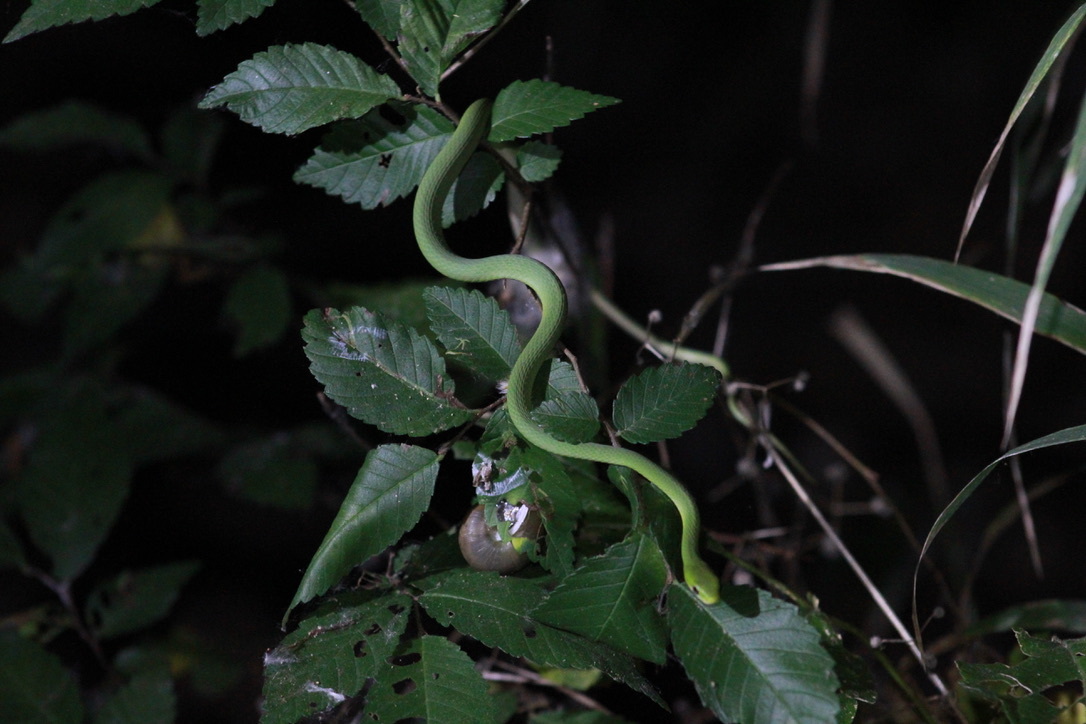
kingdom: Animalia
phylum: Chordata
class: Squamata
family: Colubridae
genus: Opheodrys
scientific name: Opheodrys aestivus
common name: Rough greensnake
